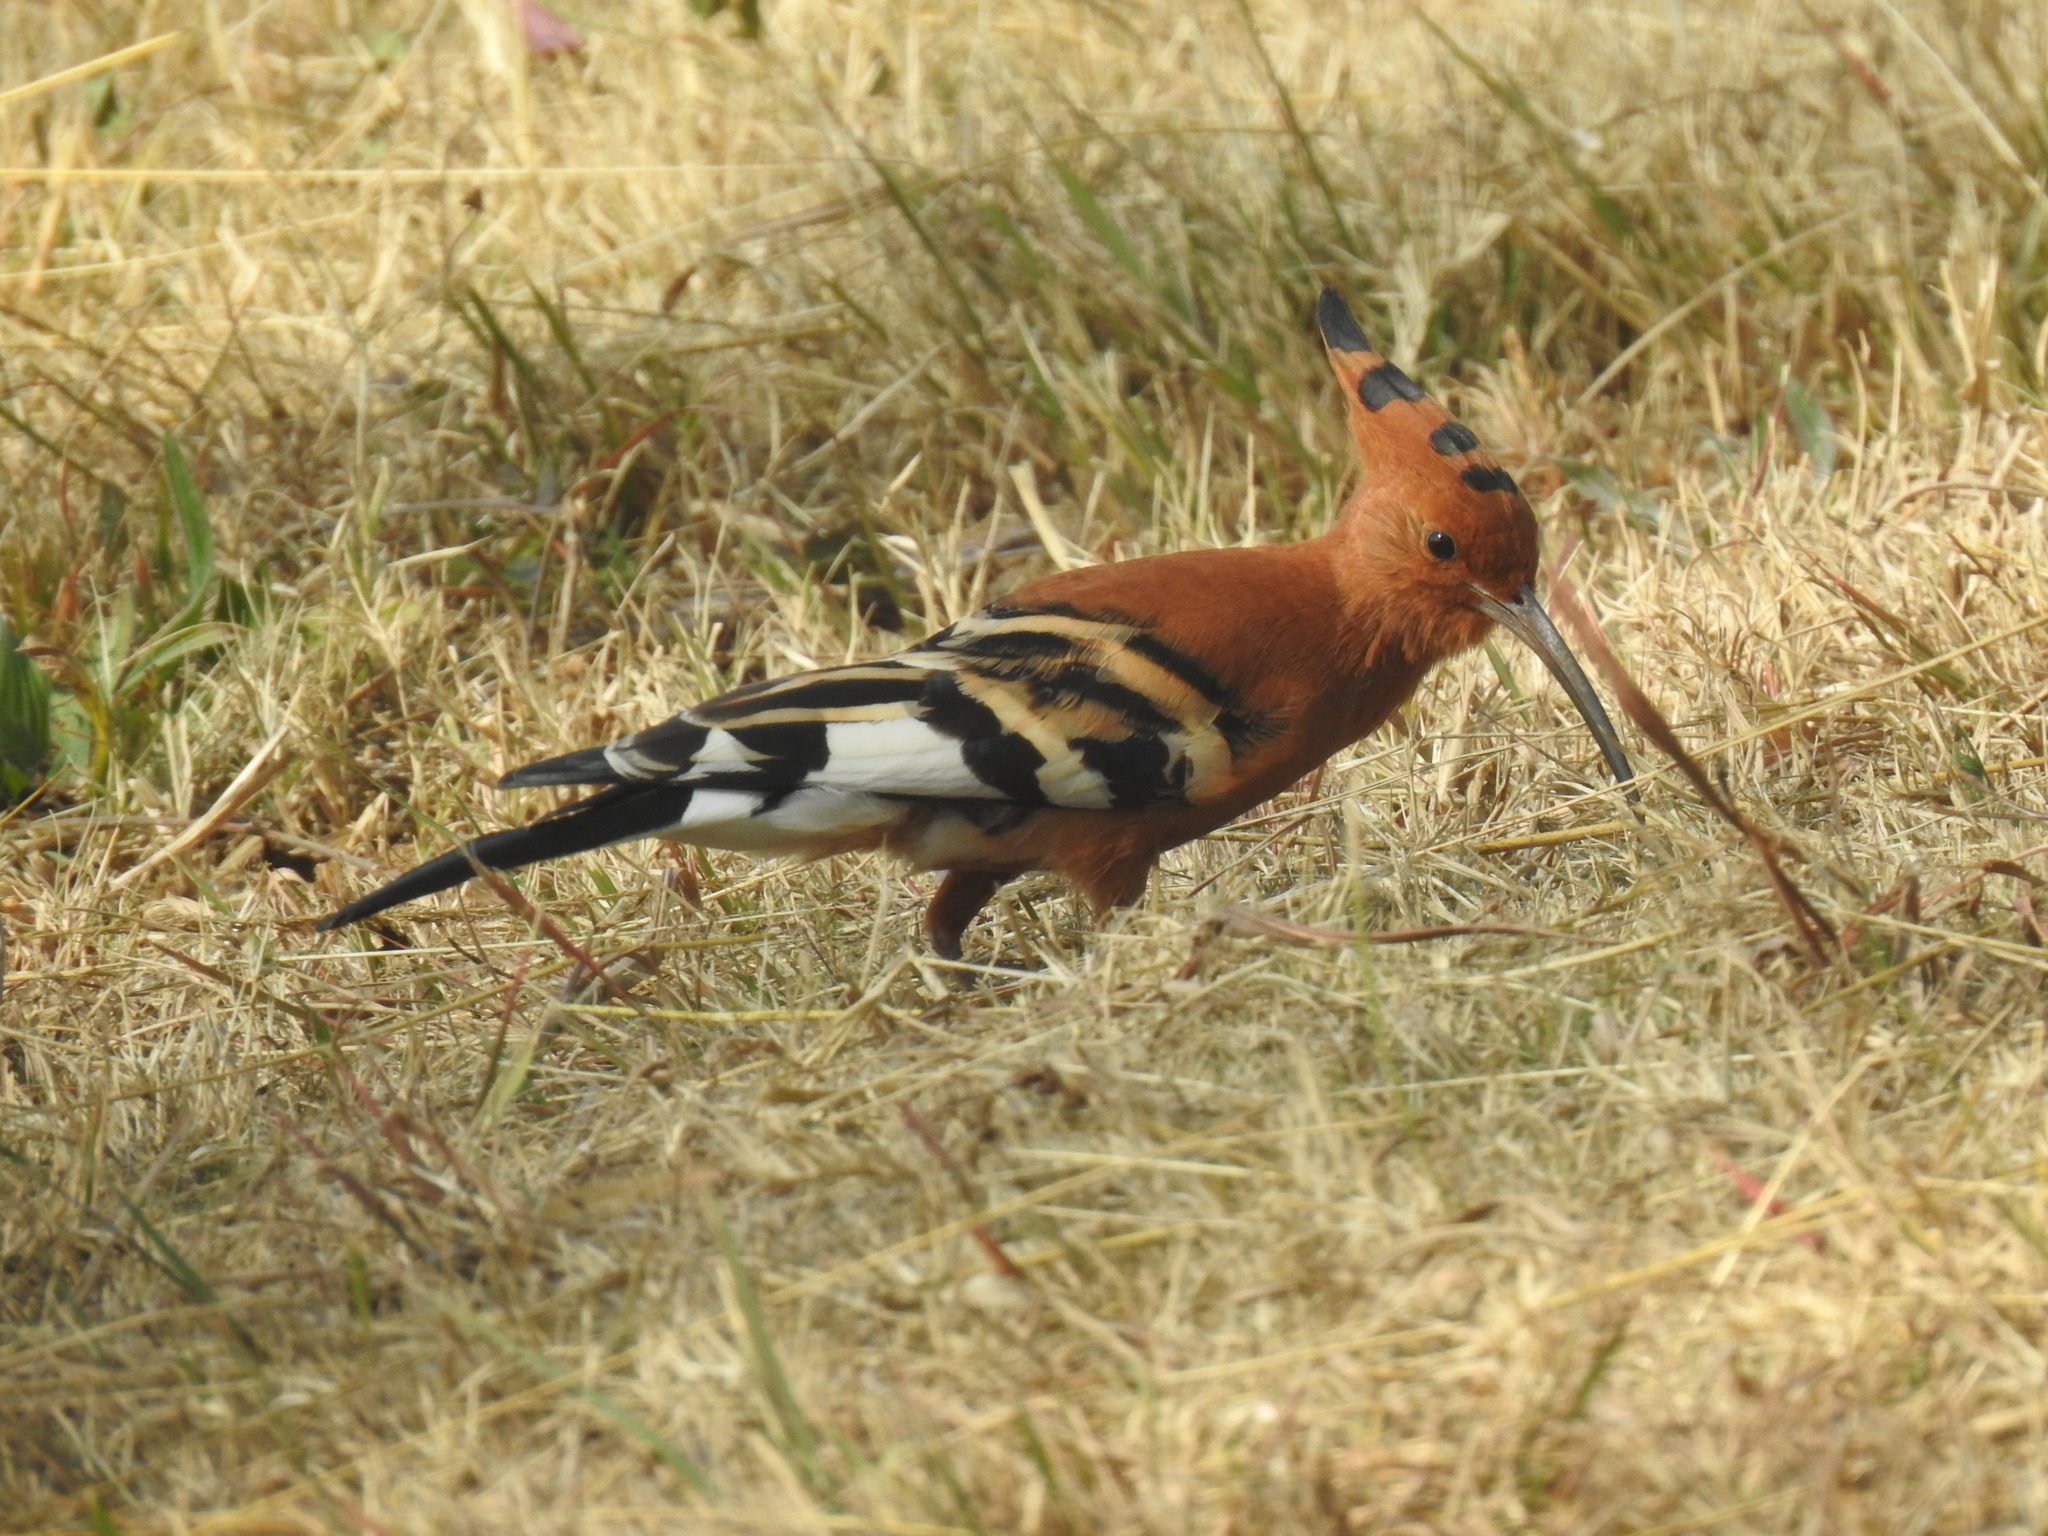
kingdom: Animalia
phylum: Chordata
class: Aves
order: Bucerotiformes
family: Upupidae
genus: Upupa
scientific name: Upupa africana
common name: African hoopoe
